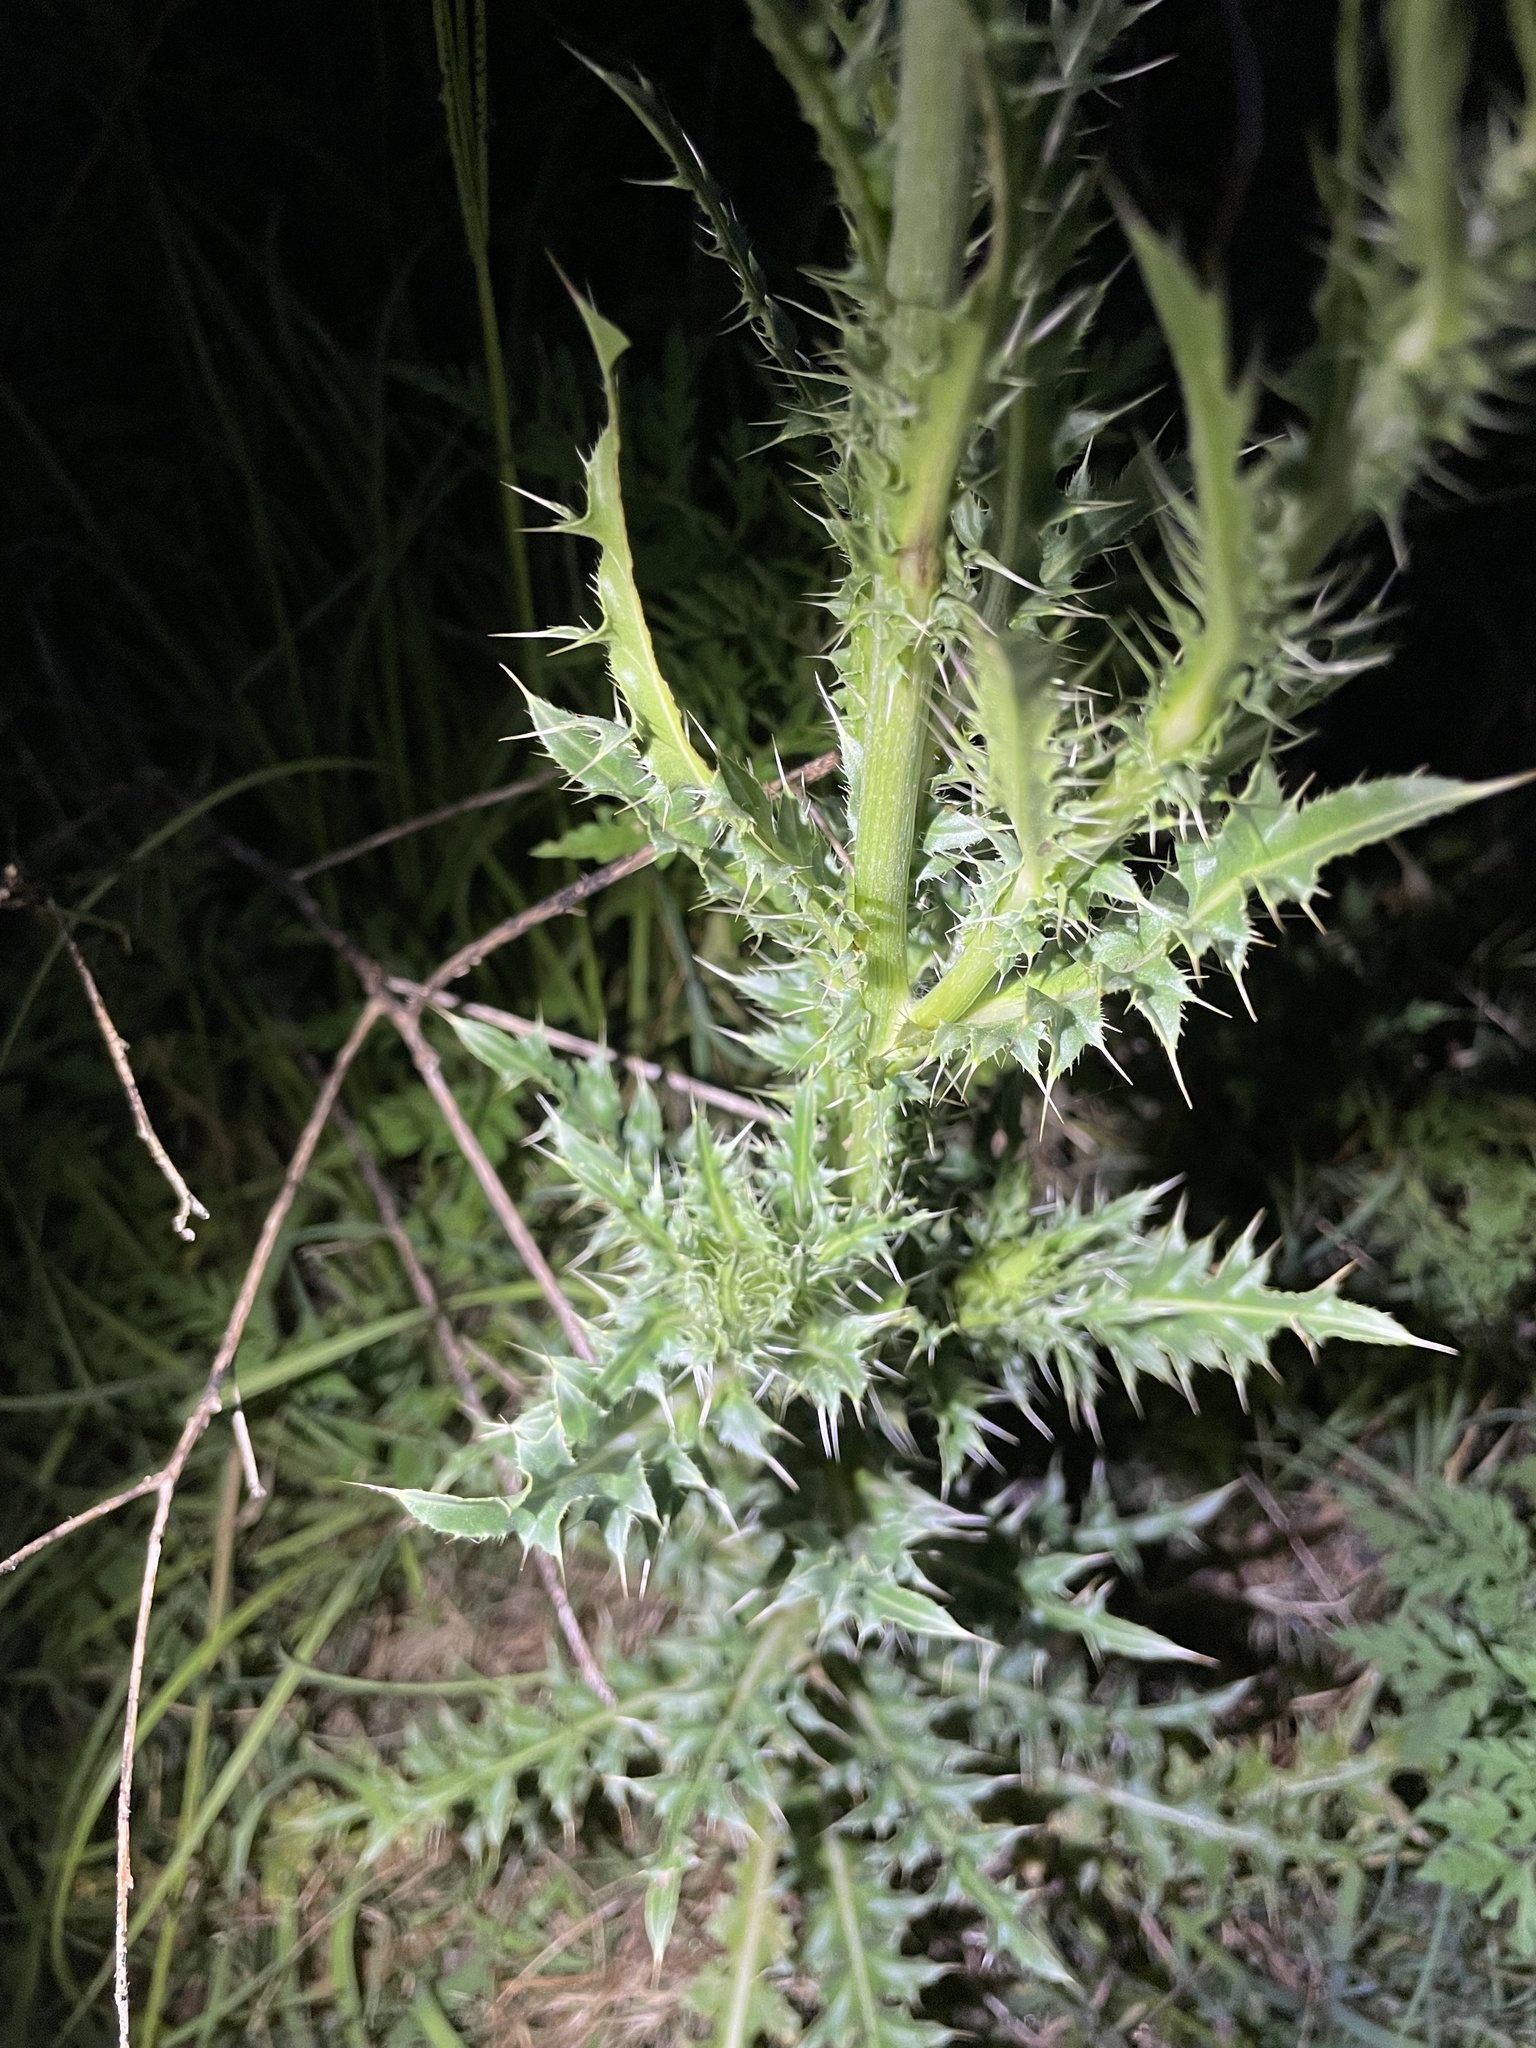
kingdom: Plantae
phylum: Tracheophyta
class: Magnoliopsida
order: Asterales
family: Asteraceae
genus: Carduus
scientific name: Carduus nutans
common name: Musk thistle
